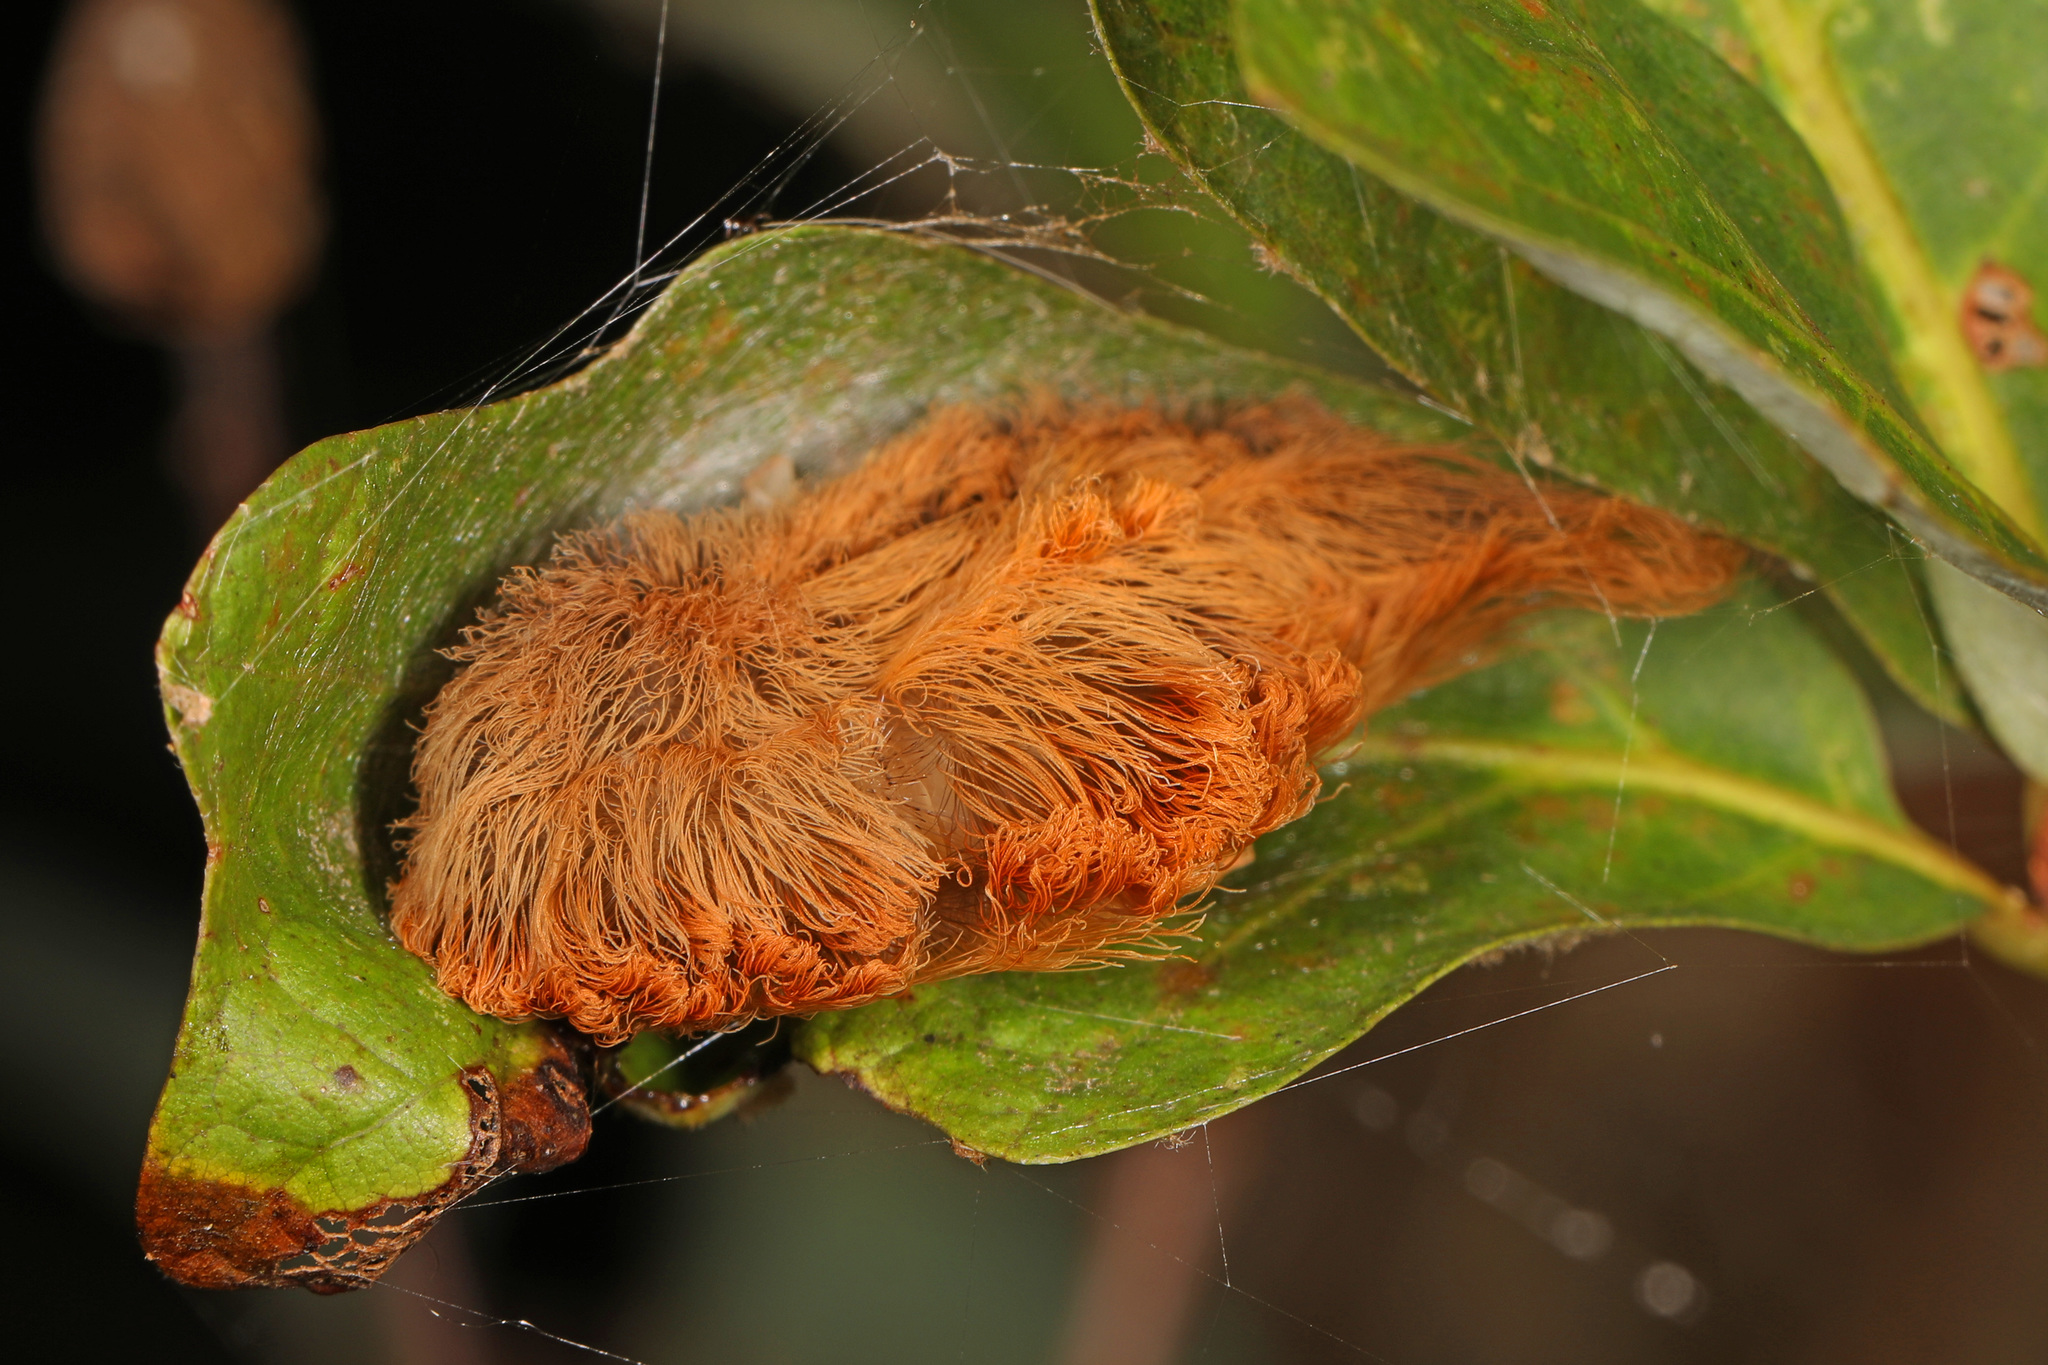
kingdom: Animalia
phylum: Arthropoda
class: Insecta
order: Lepidoptera
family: Megalopygidae
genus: Megalopyge
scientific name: Megalopyge opercularis
